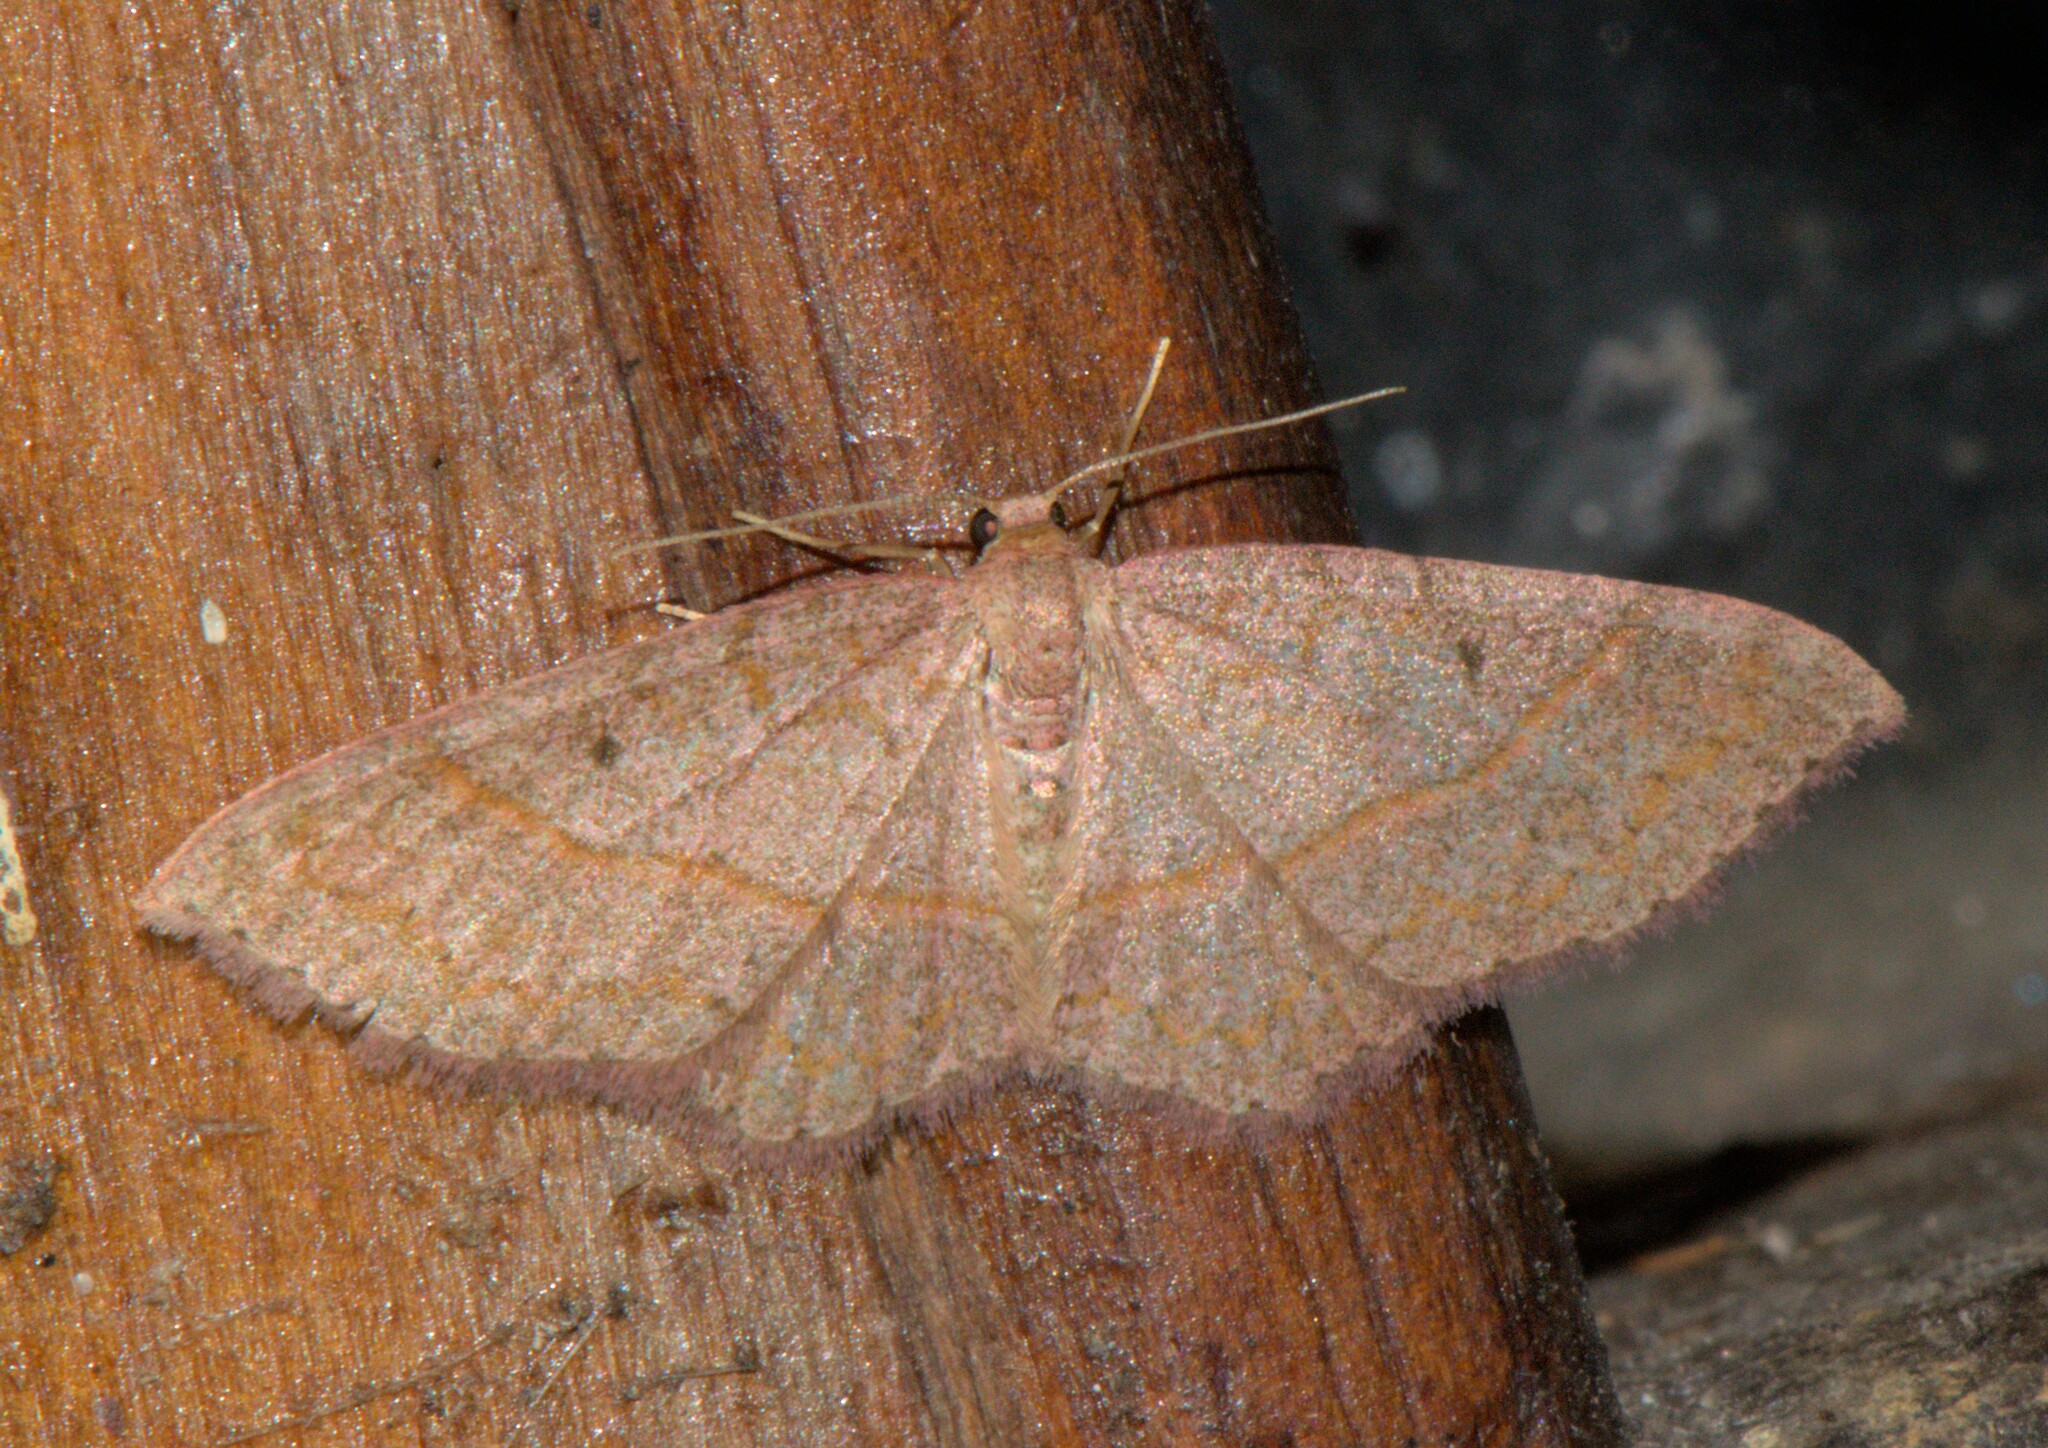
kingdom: Animalia
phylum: Arthropoda
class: Insecta
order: Lepidoptera
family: Geometridae
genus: Hydrelia
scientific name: Hydrelia sericea
